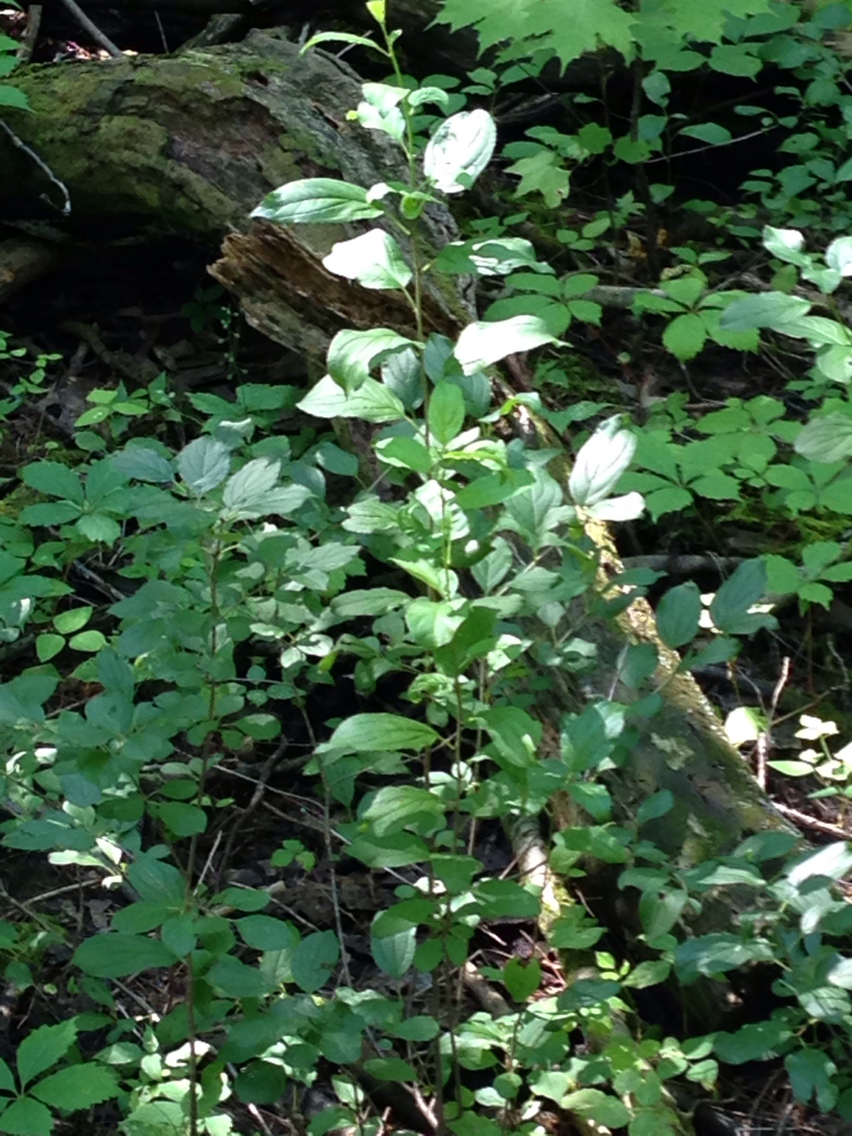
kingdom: Plantae
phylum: Tracheophyta
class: Magnoliopsida
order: Rosales
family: Rhamnaceae
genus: Rhamnus
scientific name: Rhamnus cathartica
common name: Common buckthorn
